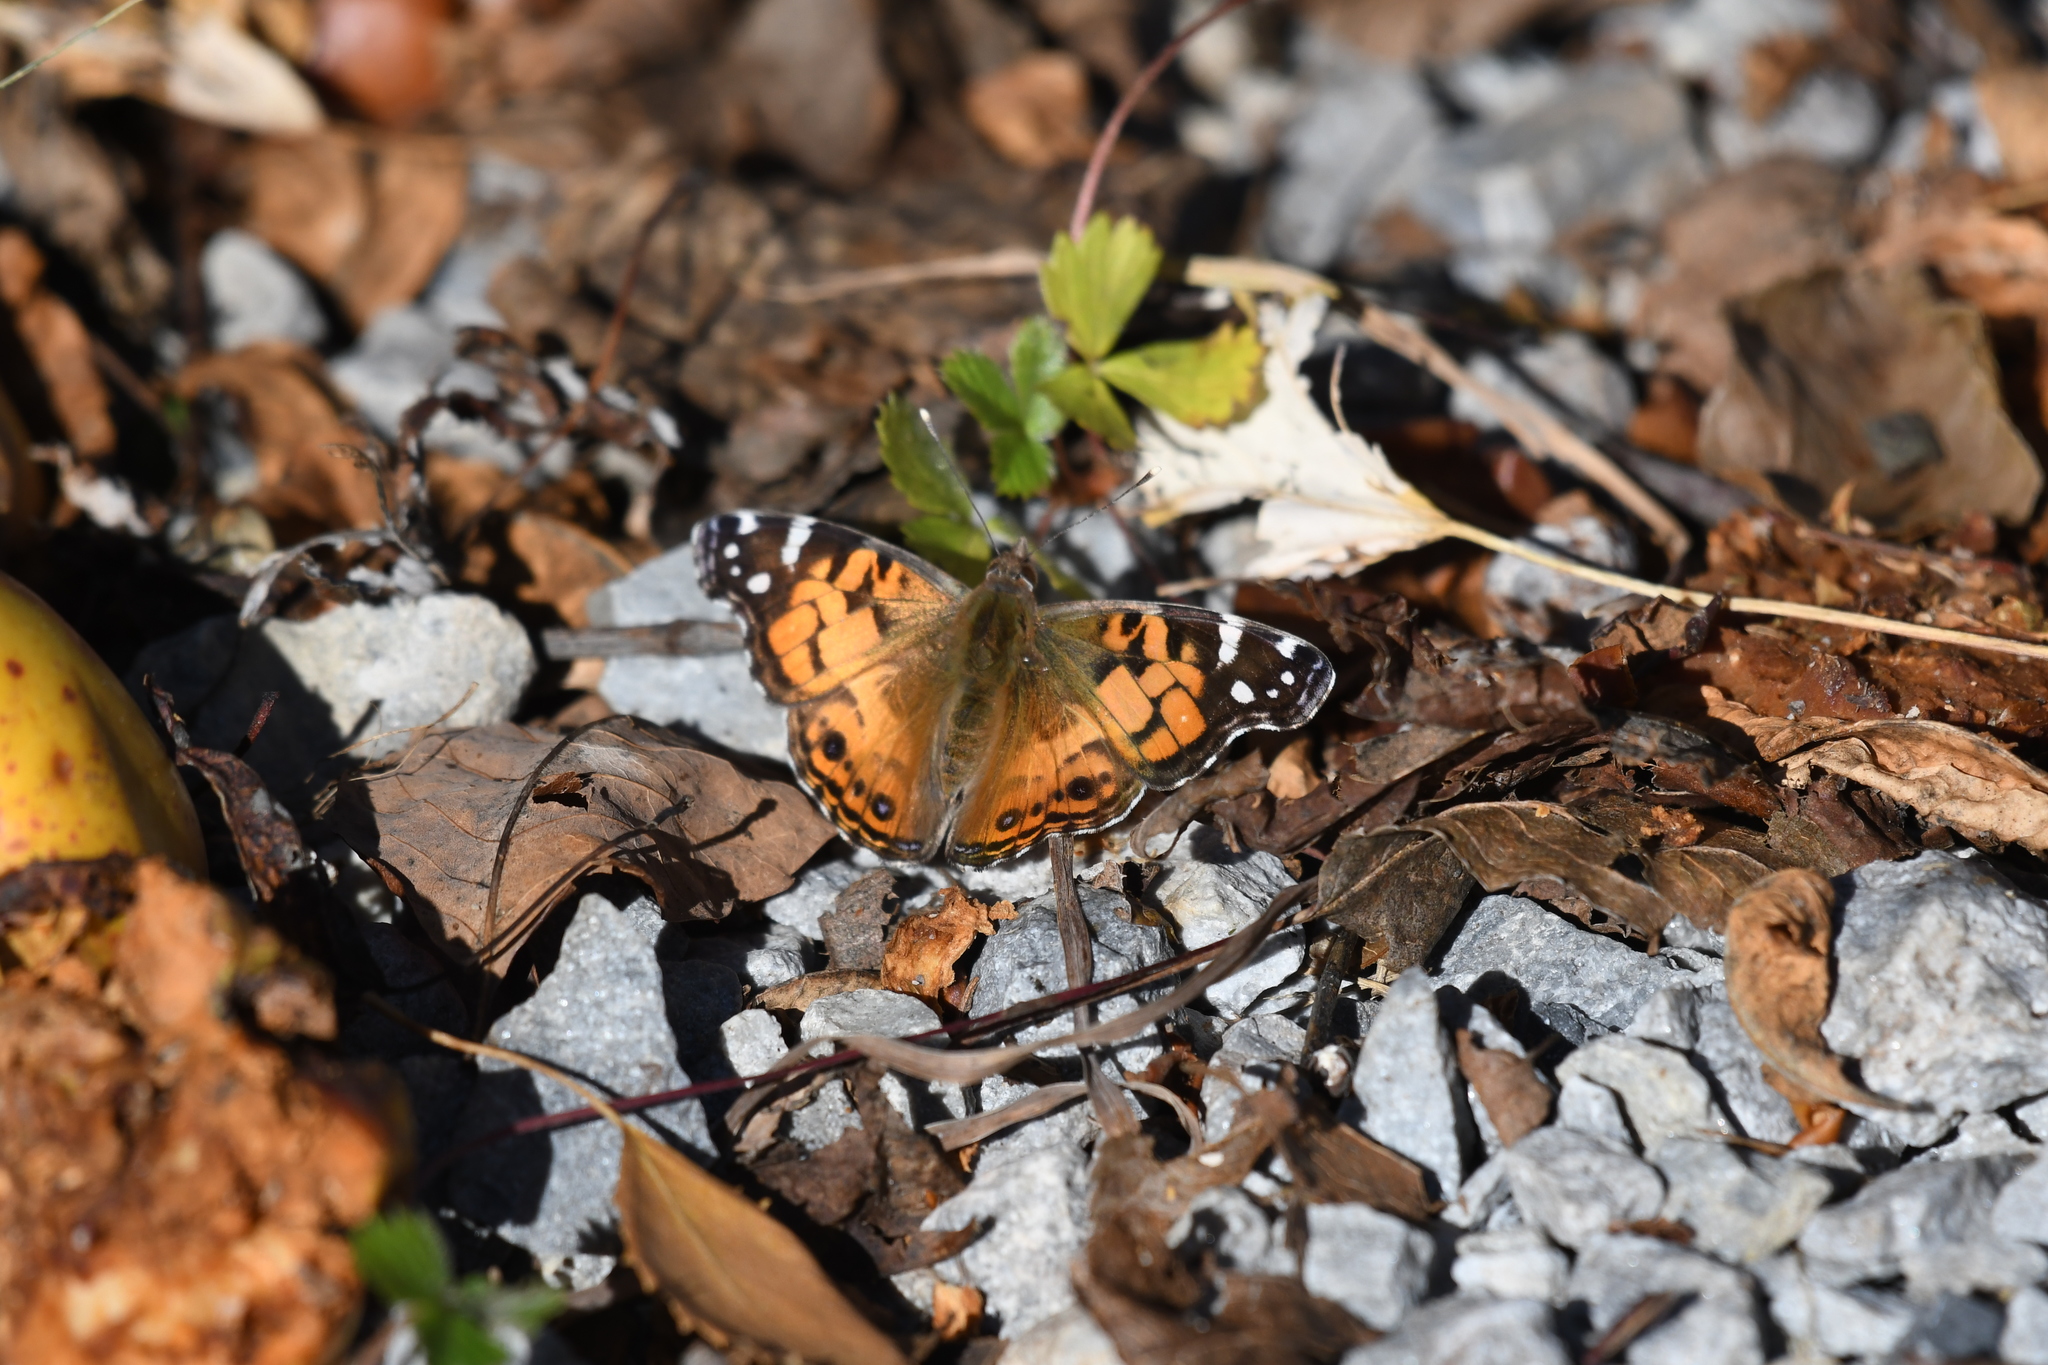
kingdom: Animalia
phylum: Arthropoda
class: Insecta
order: Lepidoptera
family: Nymphalidae
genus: Vanessa
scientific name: Vanessa virginiensis
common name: American lady
